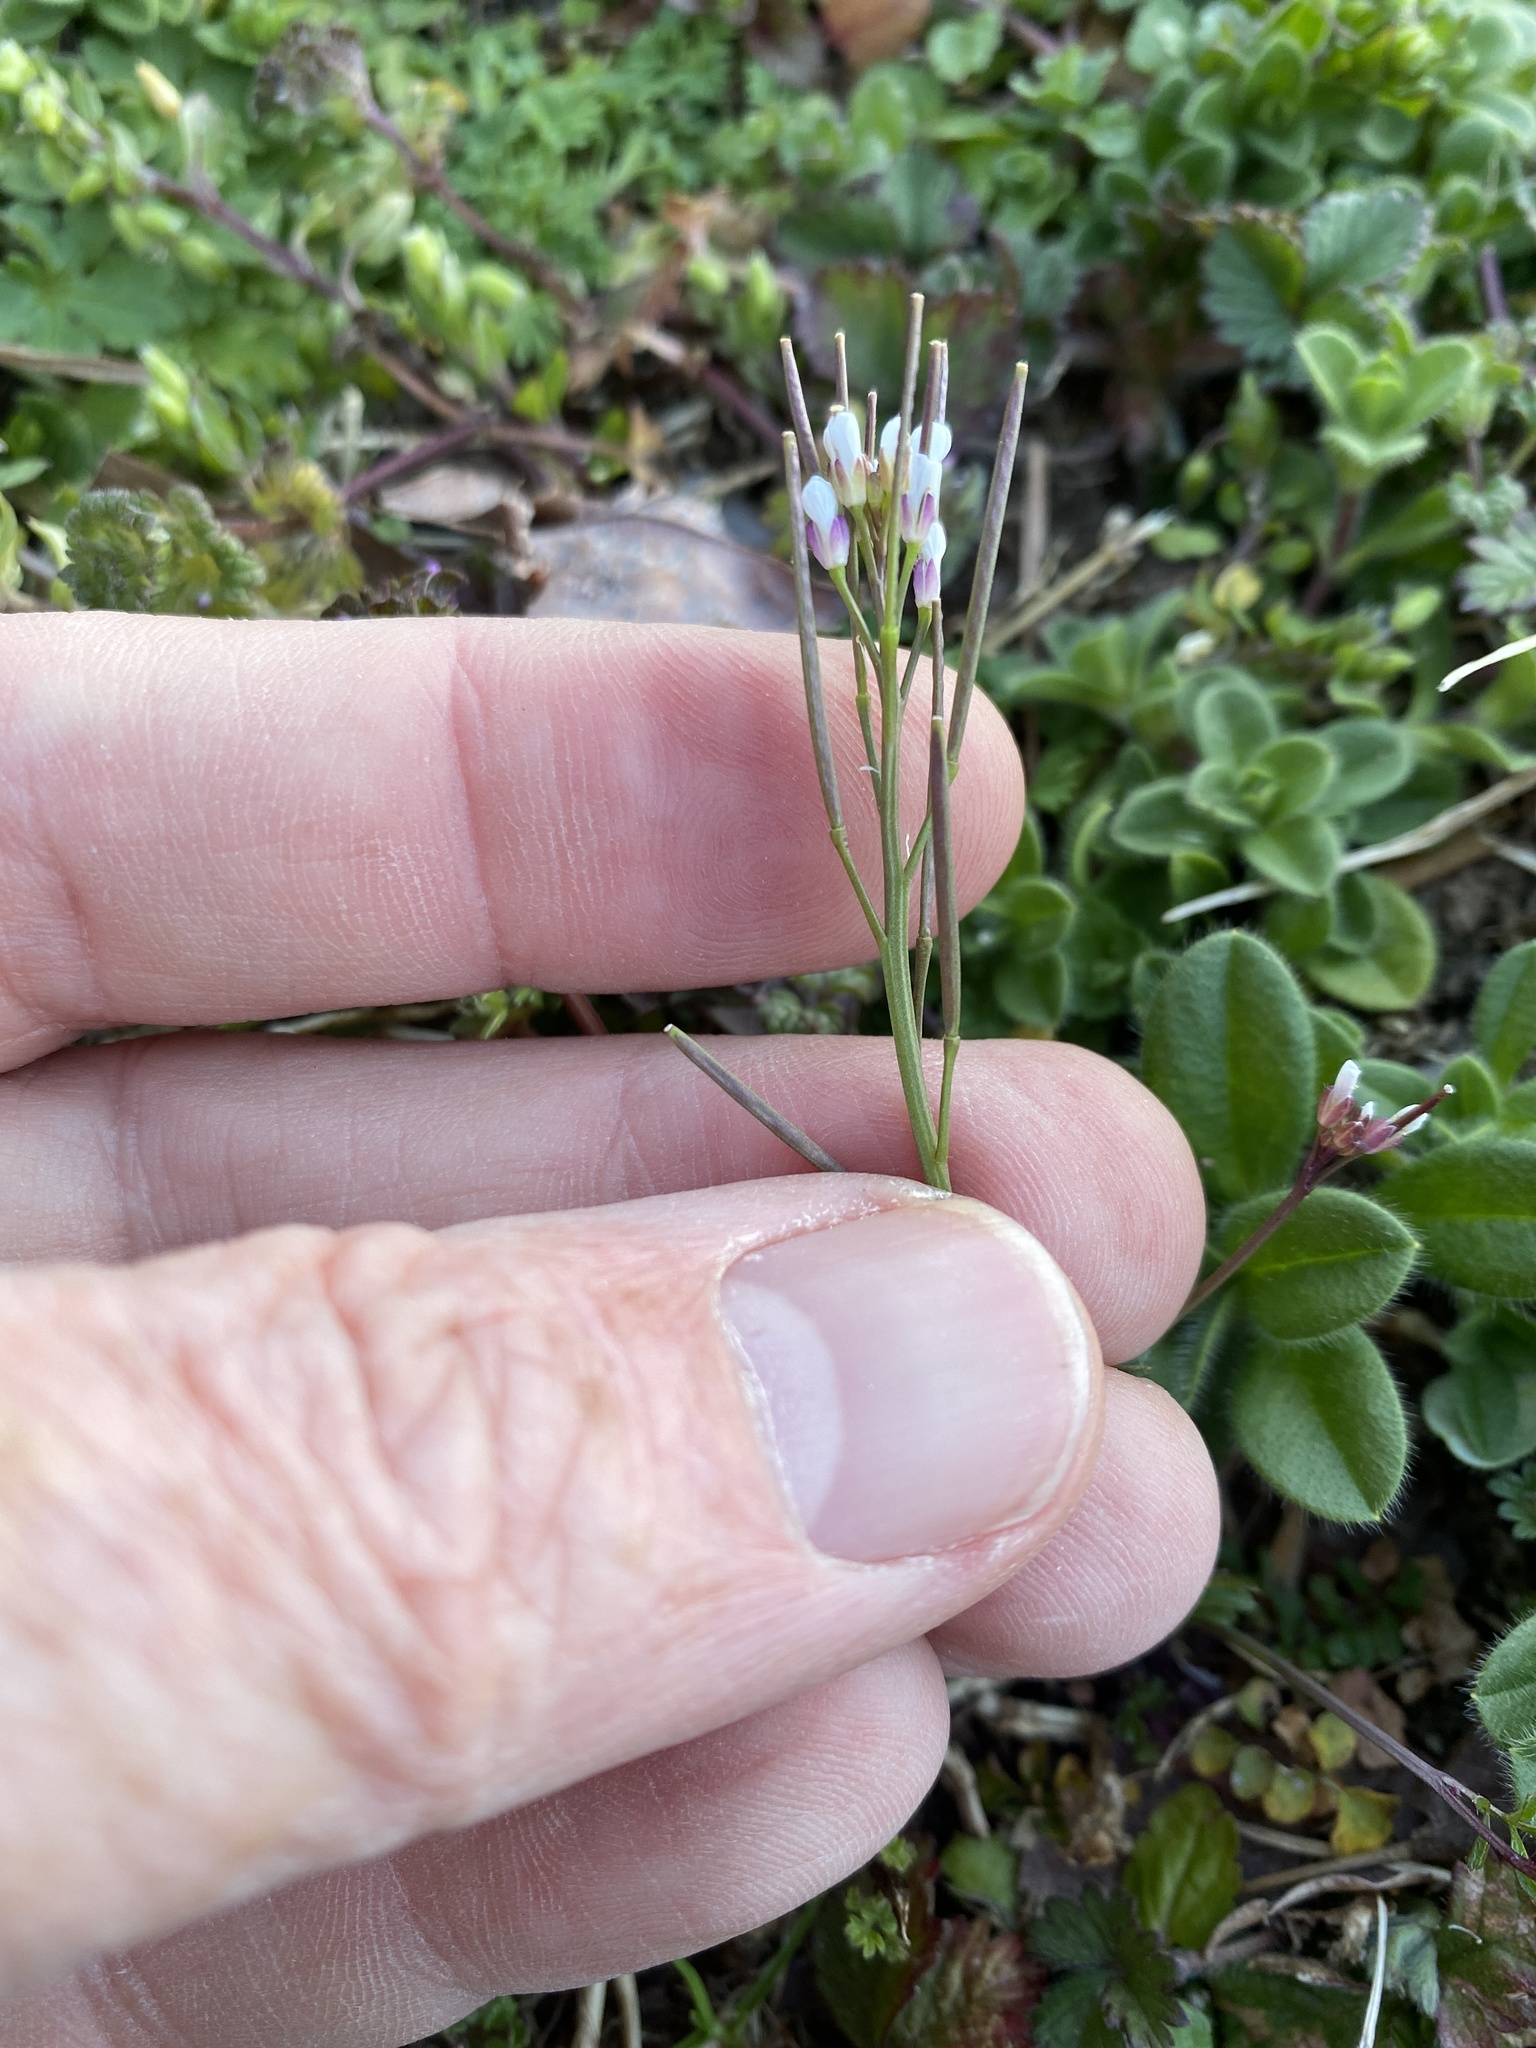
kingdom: Plantae
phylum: Tracheophyta
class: Magnoliopsida
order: Brassicales
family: Brassicaceae
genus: Cardamine
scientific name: Cardamine hirsuta
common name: Hairy bittercress
